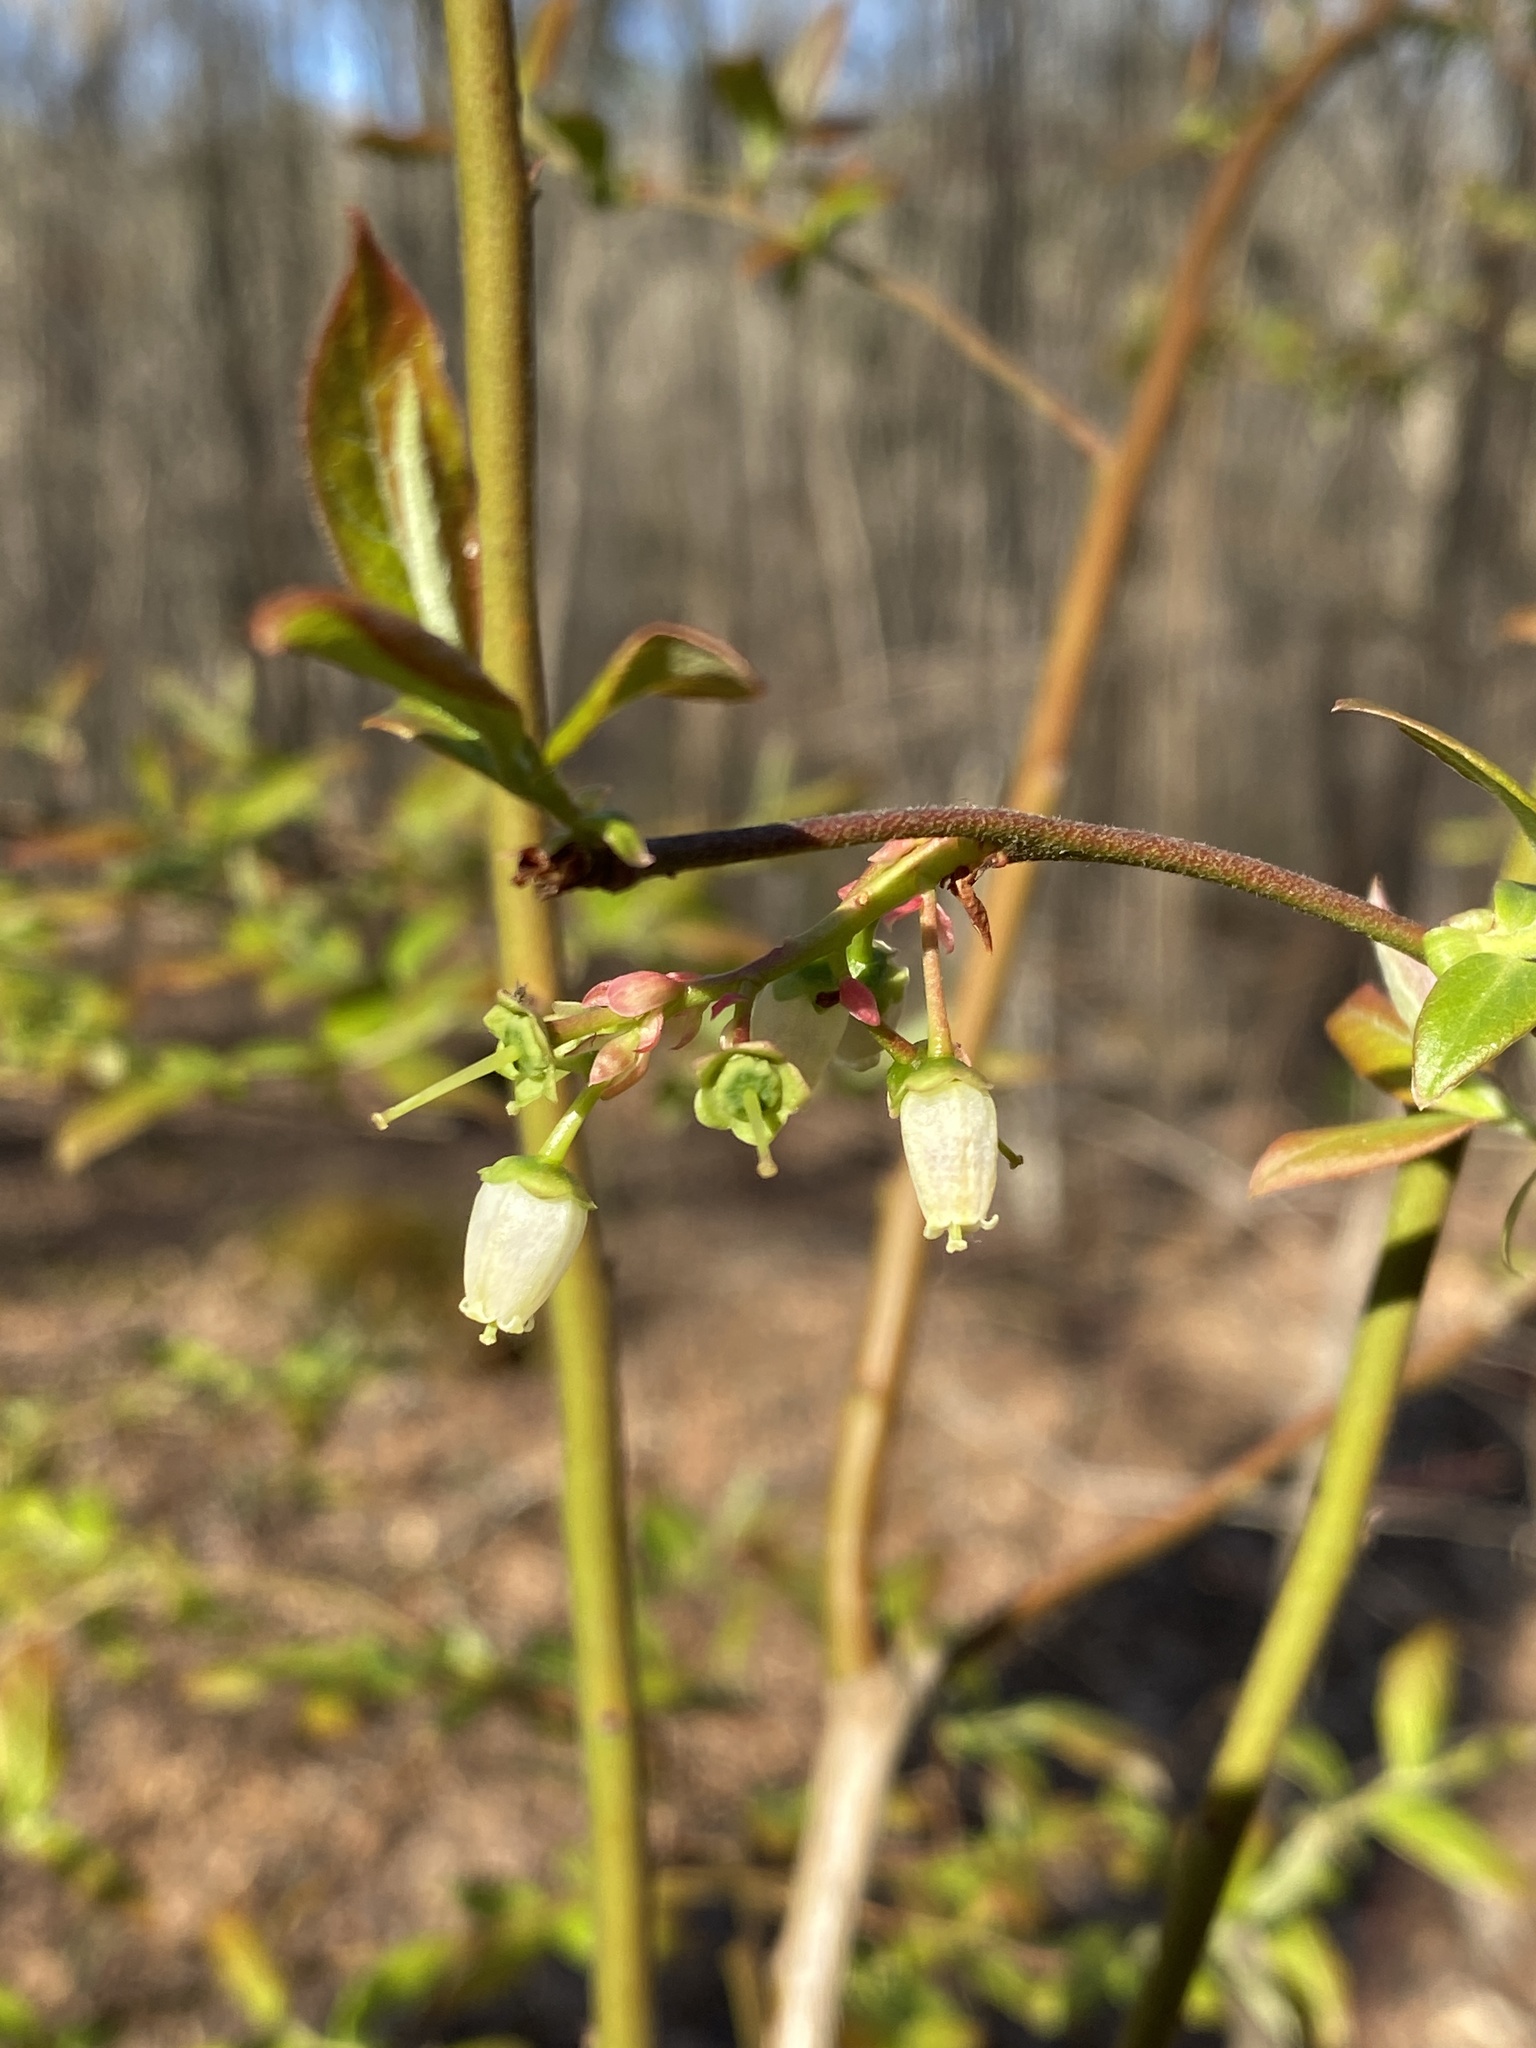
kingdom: Plantae
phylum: Tracheophyta
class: Magnoliopsida
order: Ericales
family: Ericaceae
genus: Vaccinium
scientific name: Vaccinium corymbosum
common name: Blueberry
